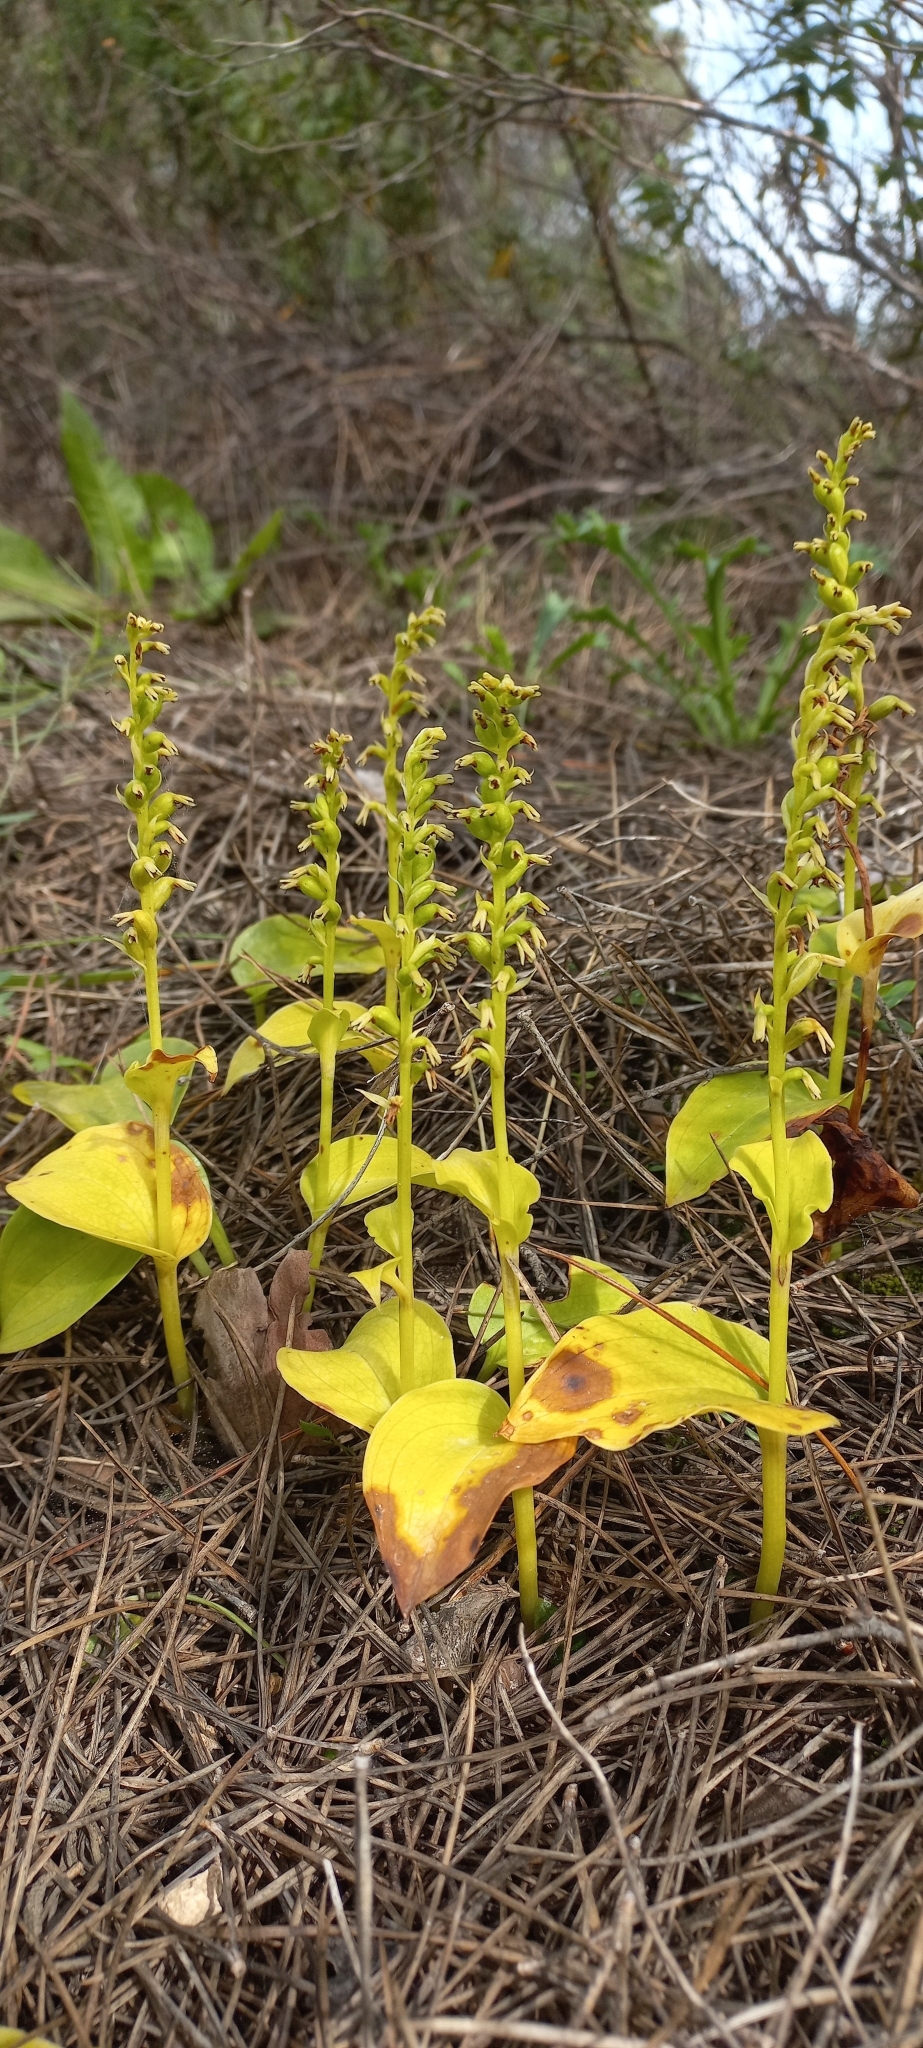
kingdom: Plantae
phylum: Tracheophyta
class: Liliopsida
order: Asparagales
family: Orchidaceae
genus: Gennaria
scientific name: Gennaria diphylla
